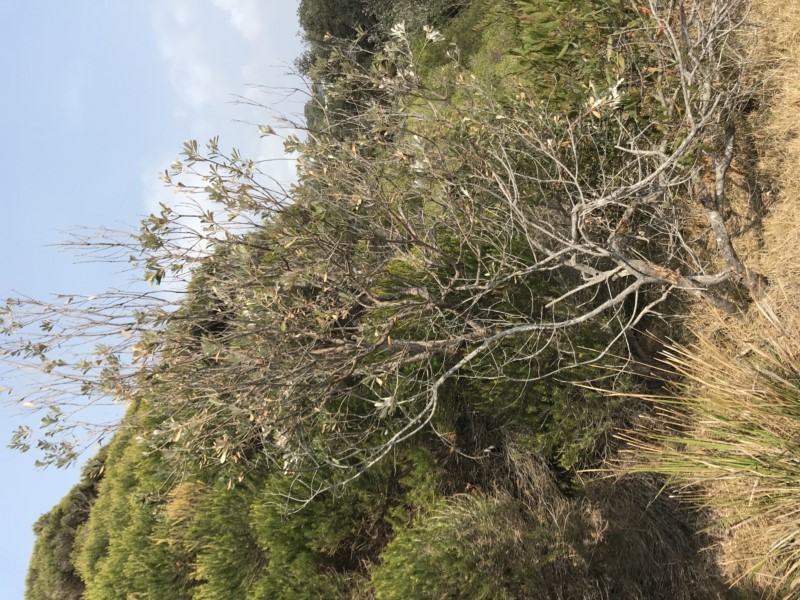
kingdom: Plantae
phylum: Tracheophyta
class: Magnoliopsida
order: Proteales
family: Proteaceae
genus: Banksia
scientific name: Banksia integrifolia
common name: White-honeysuckle
